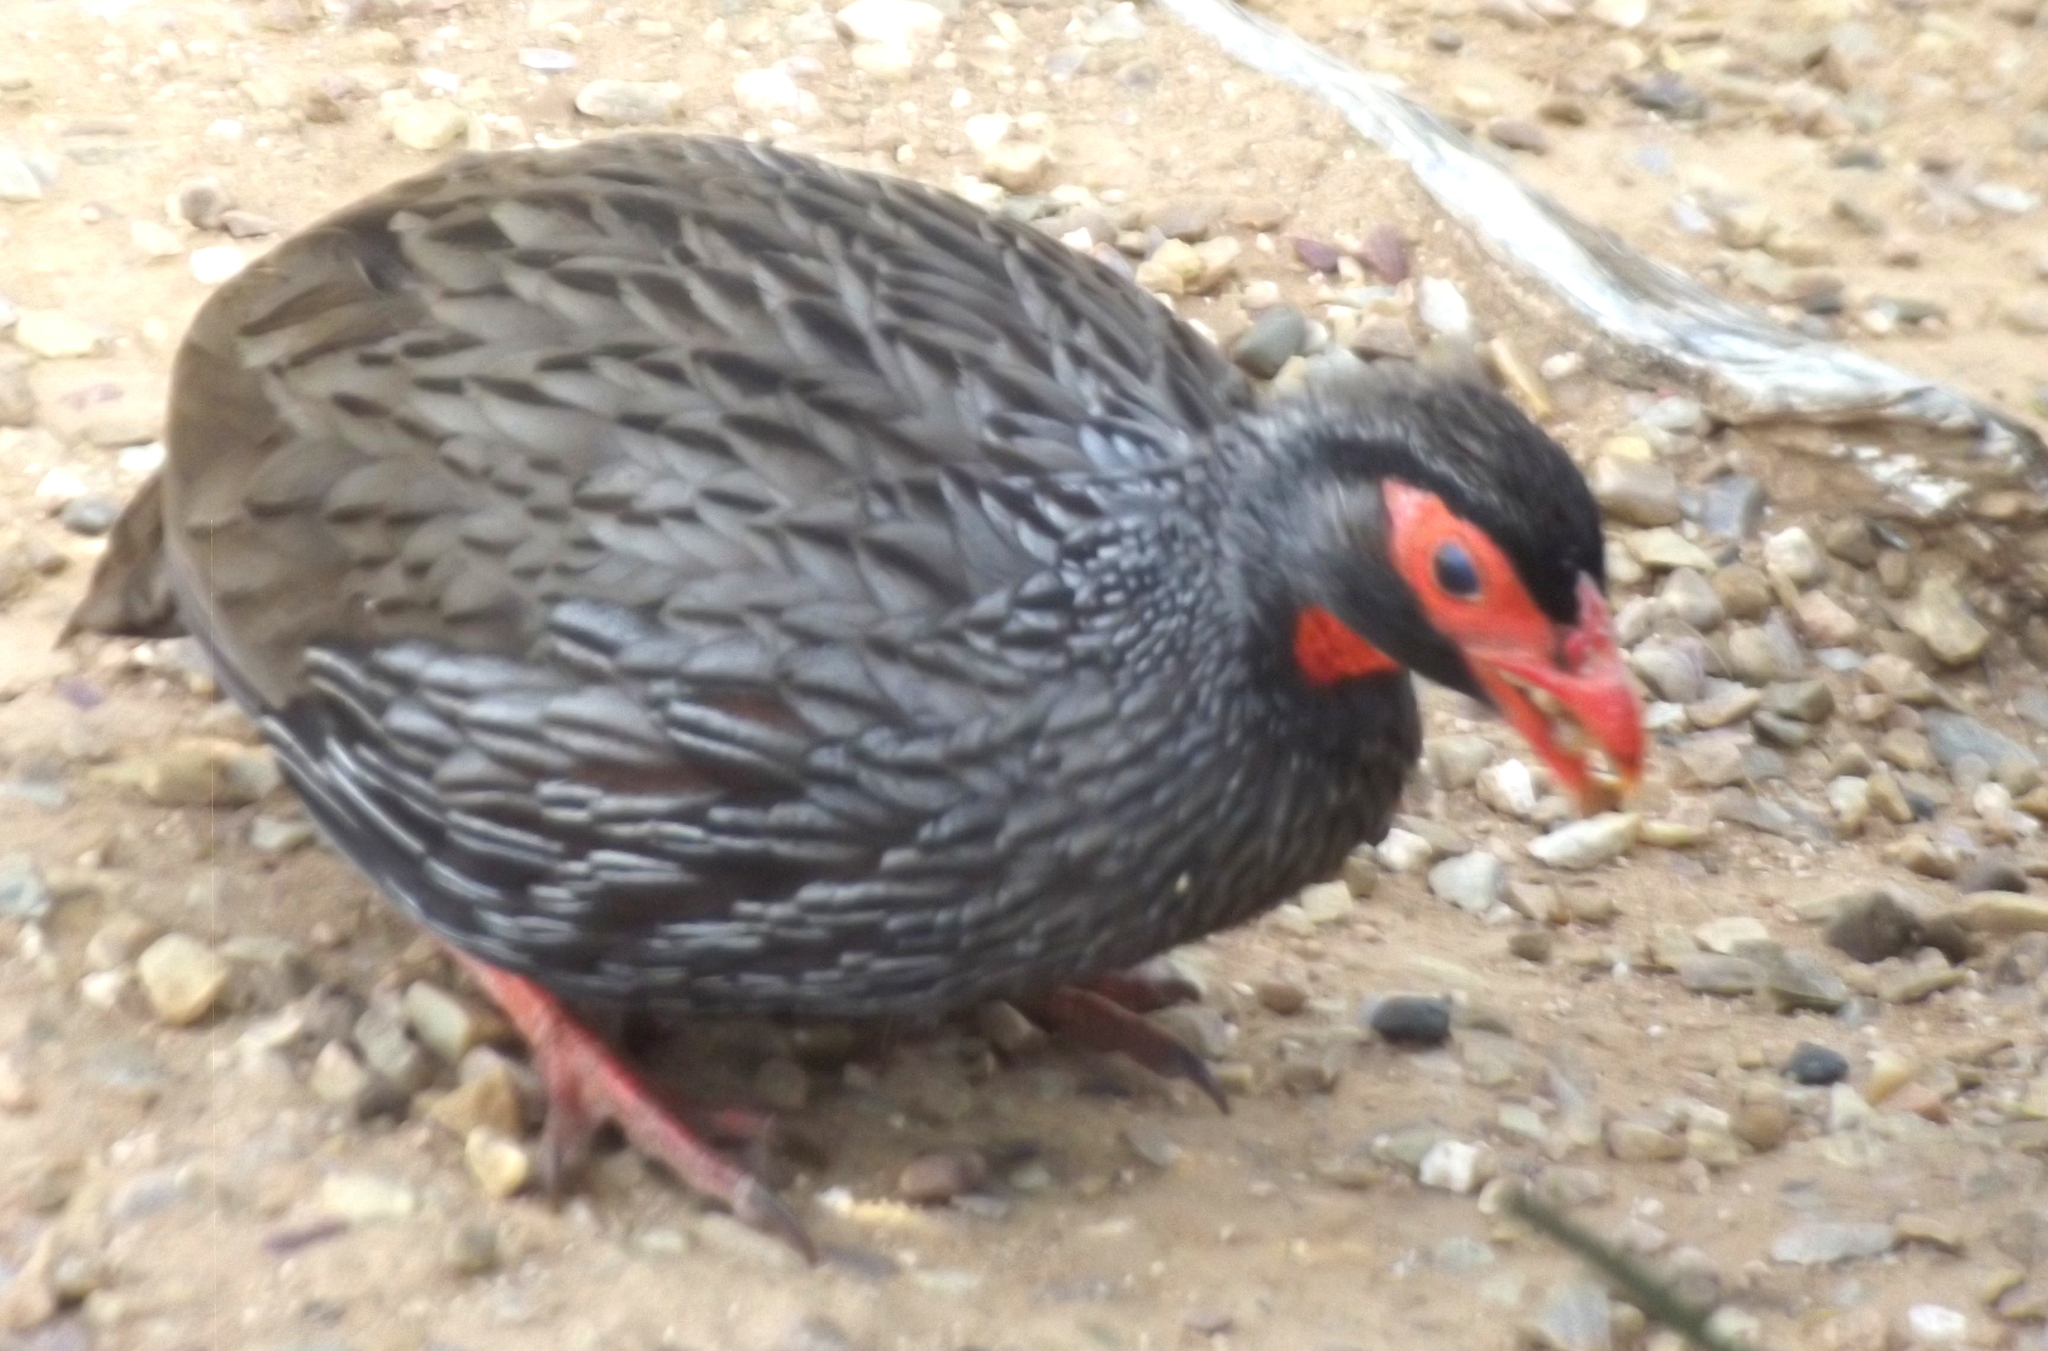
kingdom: Animalia
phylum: Chordata
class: Aves
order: Galliformes
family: Phasianidae
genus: Pternistis
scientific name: Pternistis afer
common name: Red-necked spurfowl
